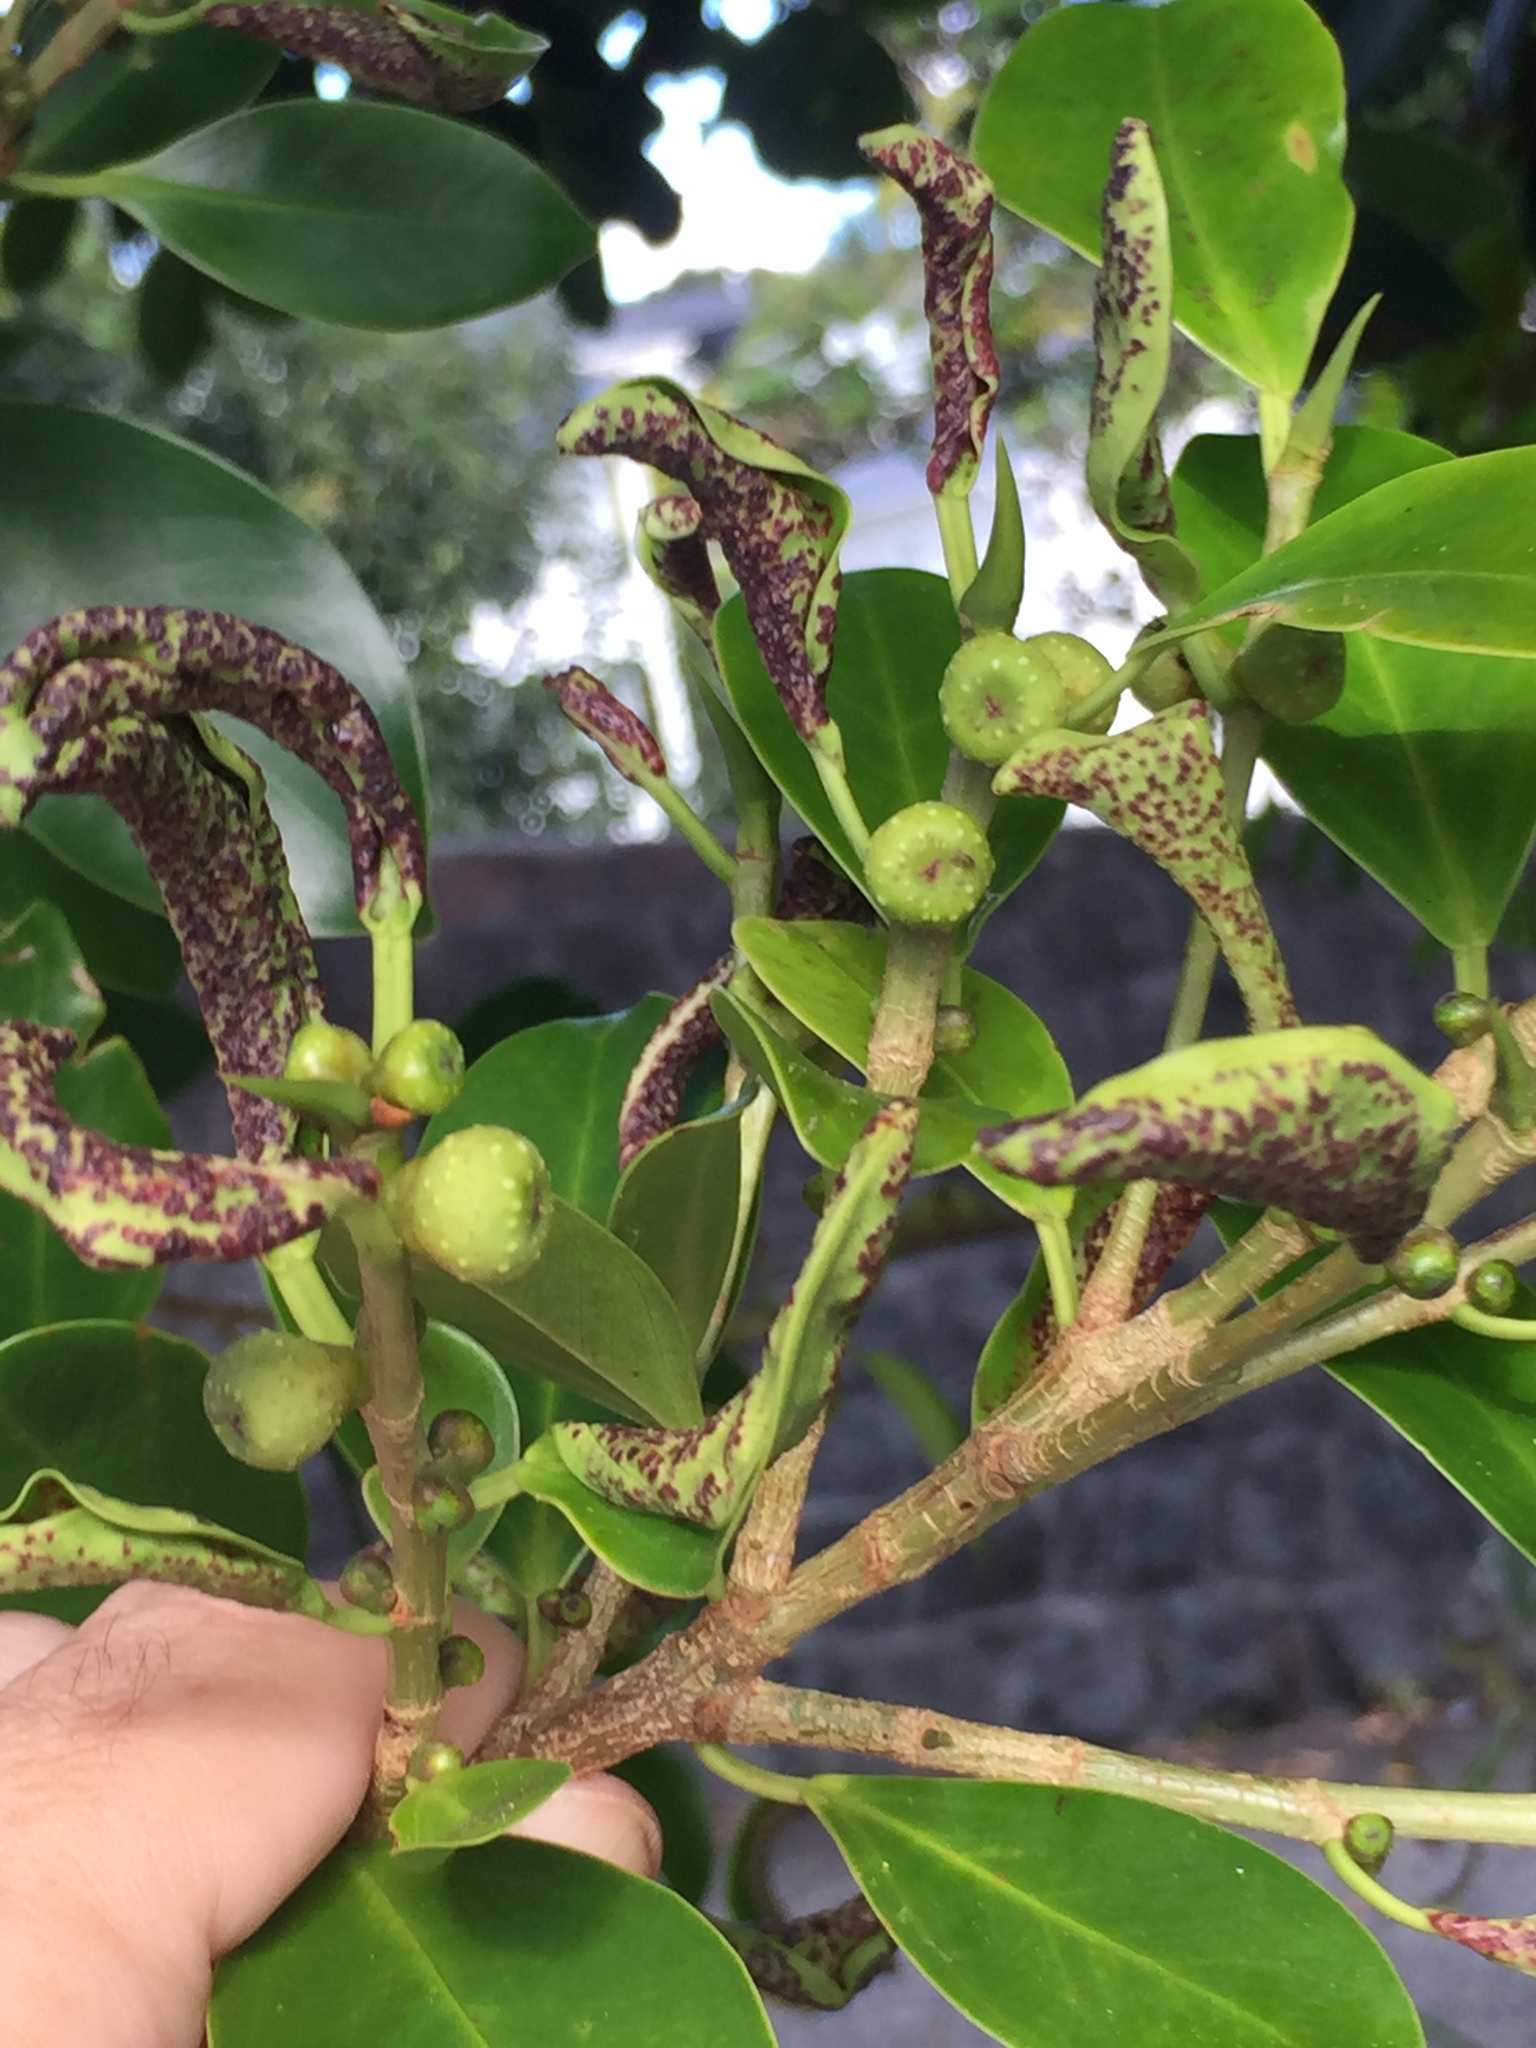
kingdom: Animalia
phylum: Arthropoda
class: Insecta
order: Thysanoptera
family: Phlaeothripidae
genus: Gynaikothrips
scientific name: Gynaikothrips ficorum
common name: Cuban laurel thrips
